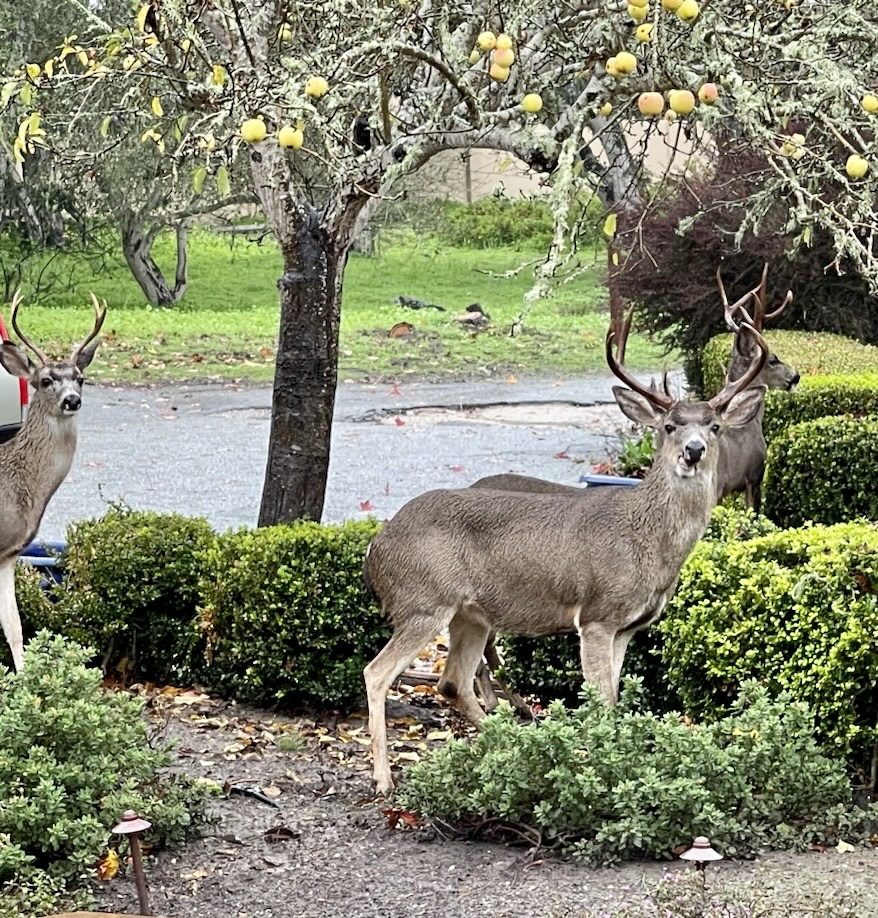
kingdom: Animalia
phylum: Chordata
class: Mammalia
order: Artiodactyla
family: Cervidae
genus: Odocoileus
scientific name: Odocoileus hemionus
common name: Mule deer
